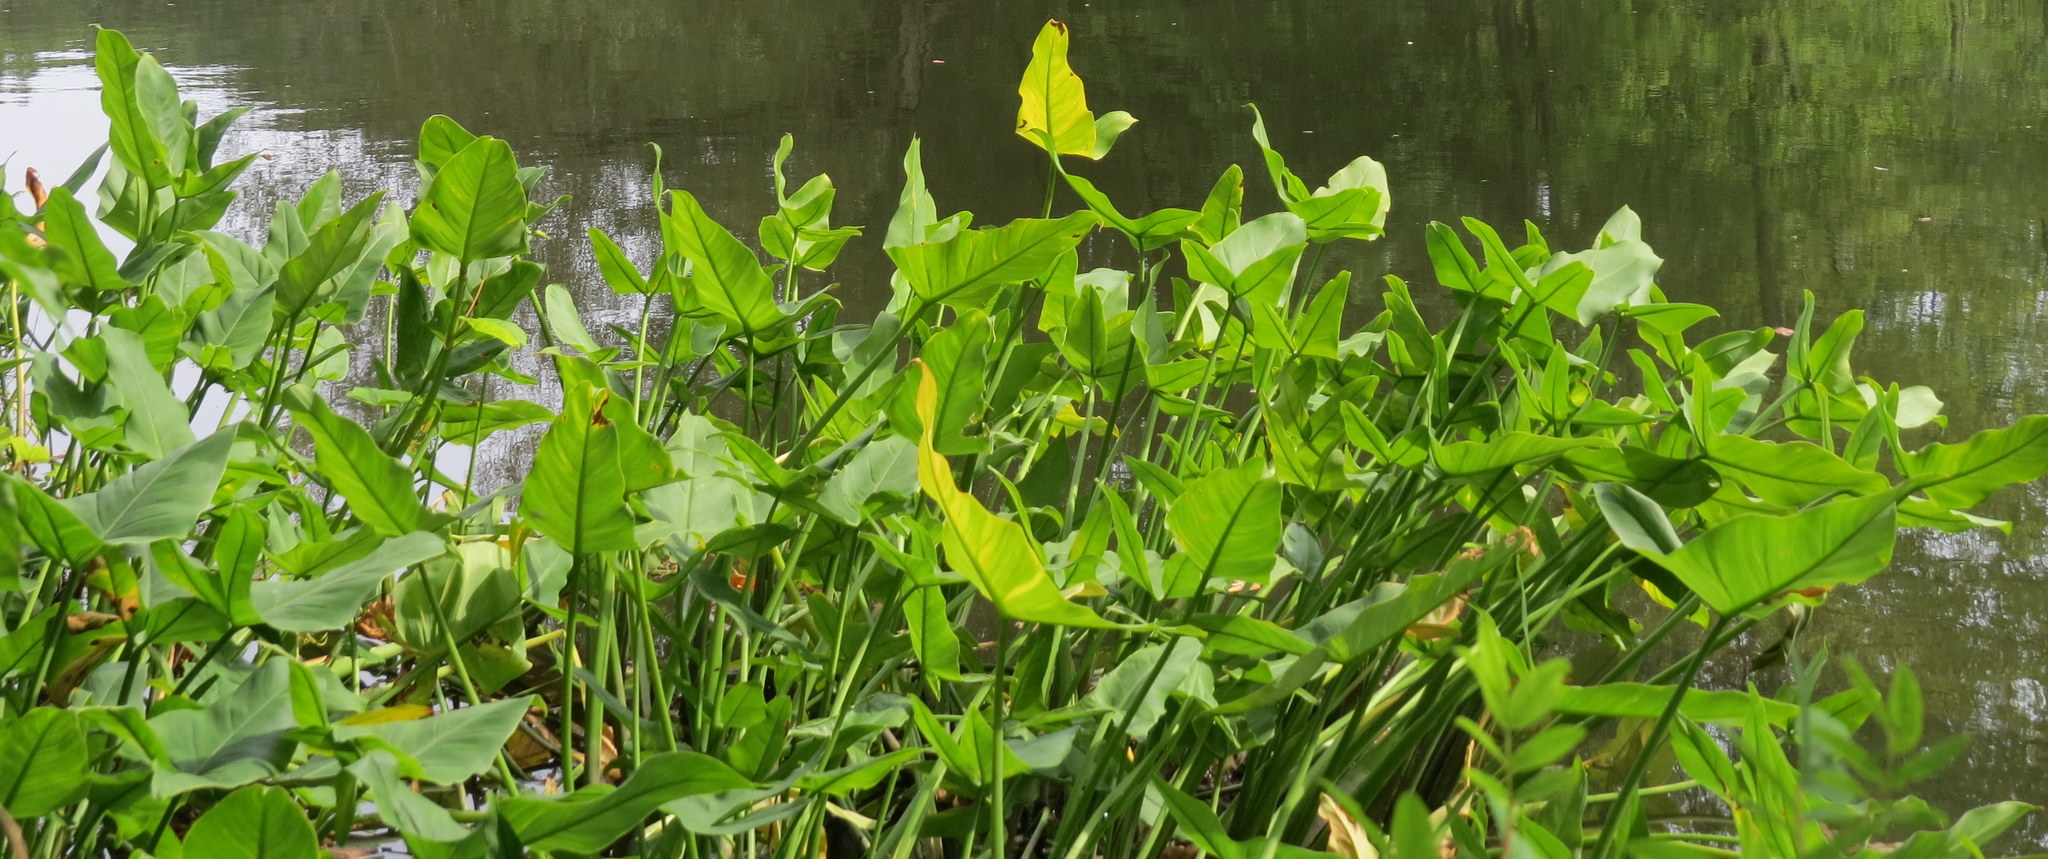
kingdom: Plantae
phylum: Tracheophyta
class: Liliopsida
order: Alismatales
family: Araceae
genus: Peltandra
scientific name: Peltandra virginica
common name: Arrow arum
